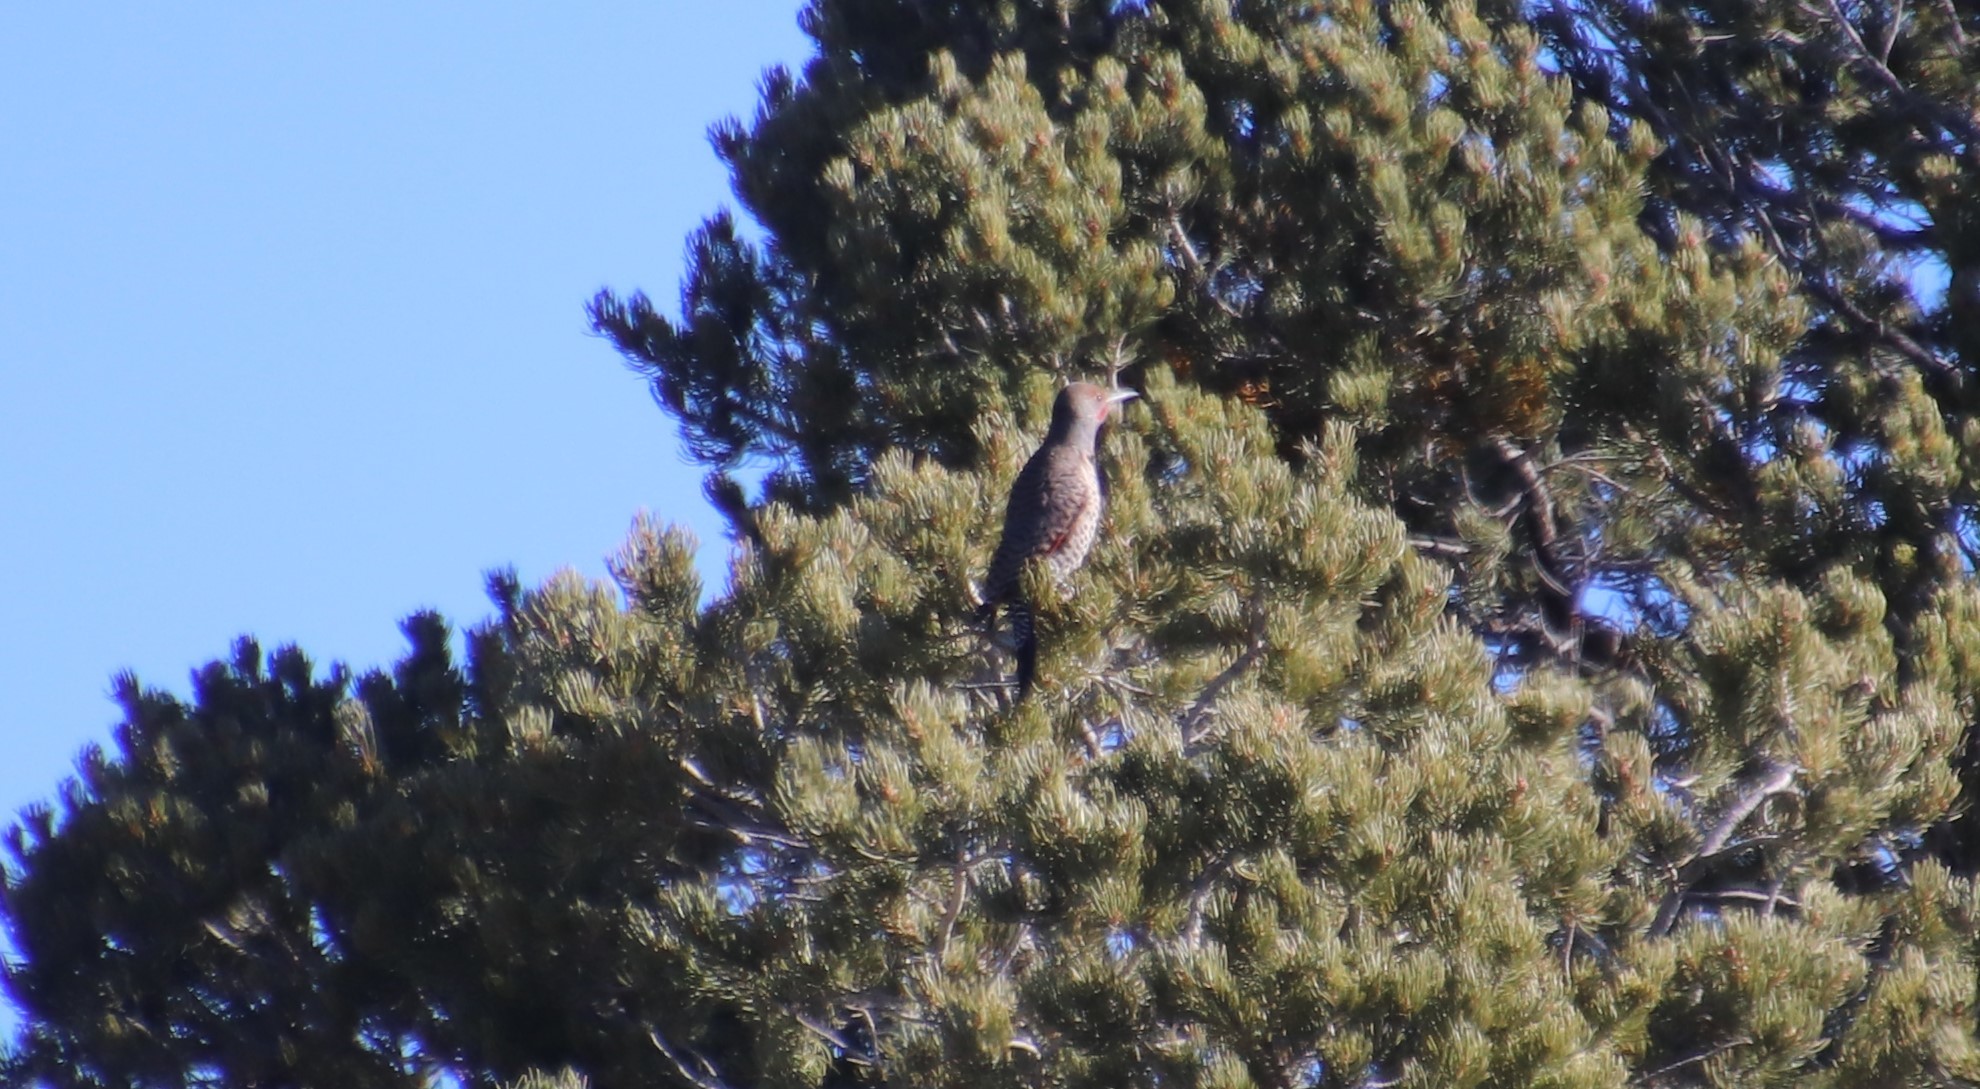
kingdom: Animalia
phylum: Chordata
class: Aves
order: Piciformes
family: Picidae
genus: Colaptes
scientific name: Colaptes auratus
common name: Northern flicker
